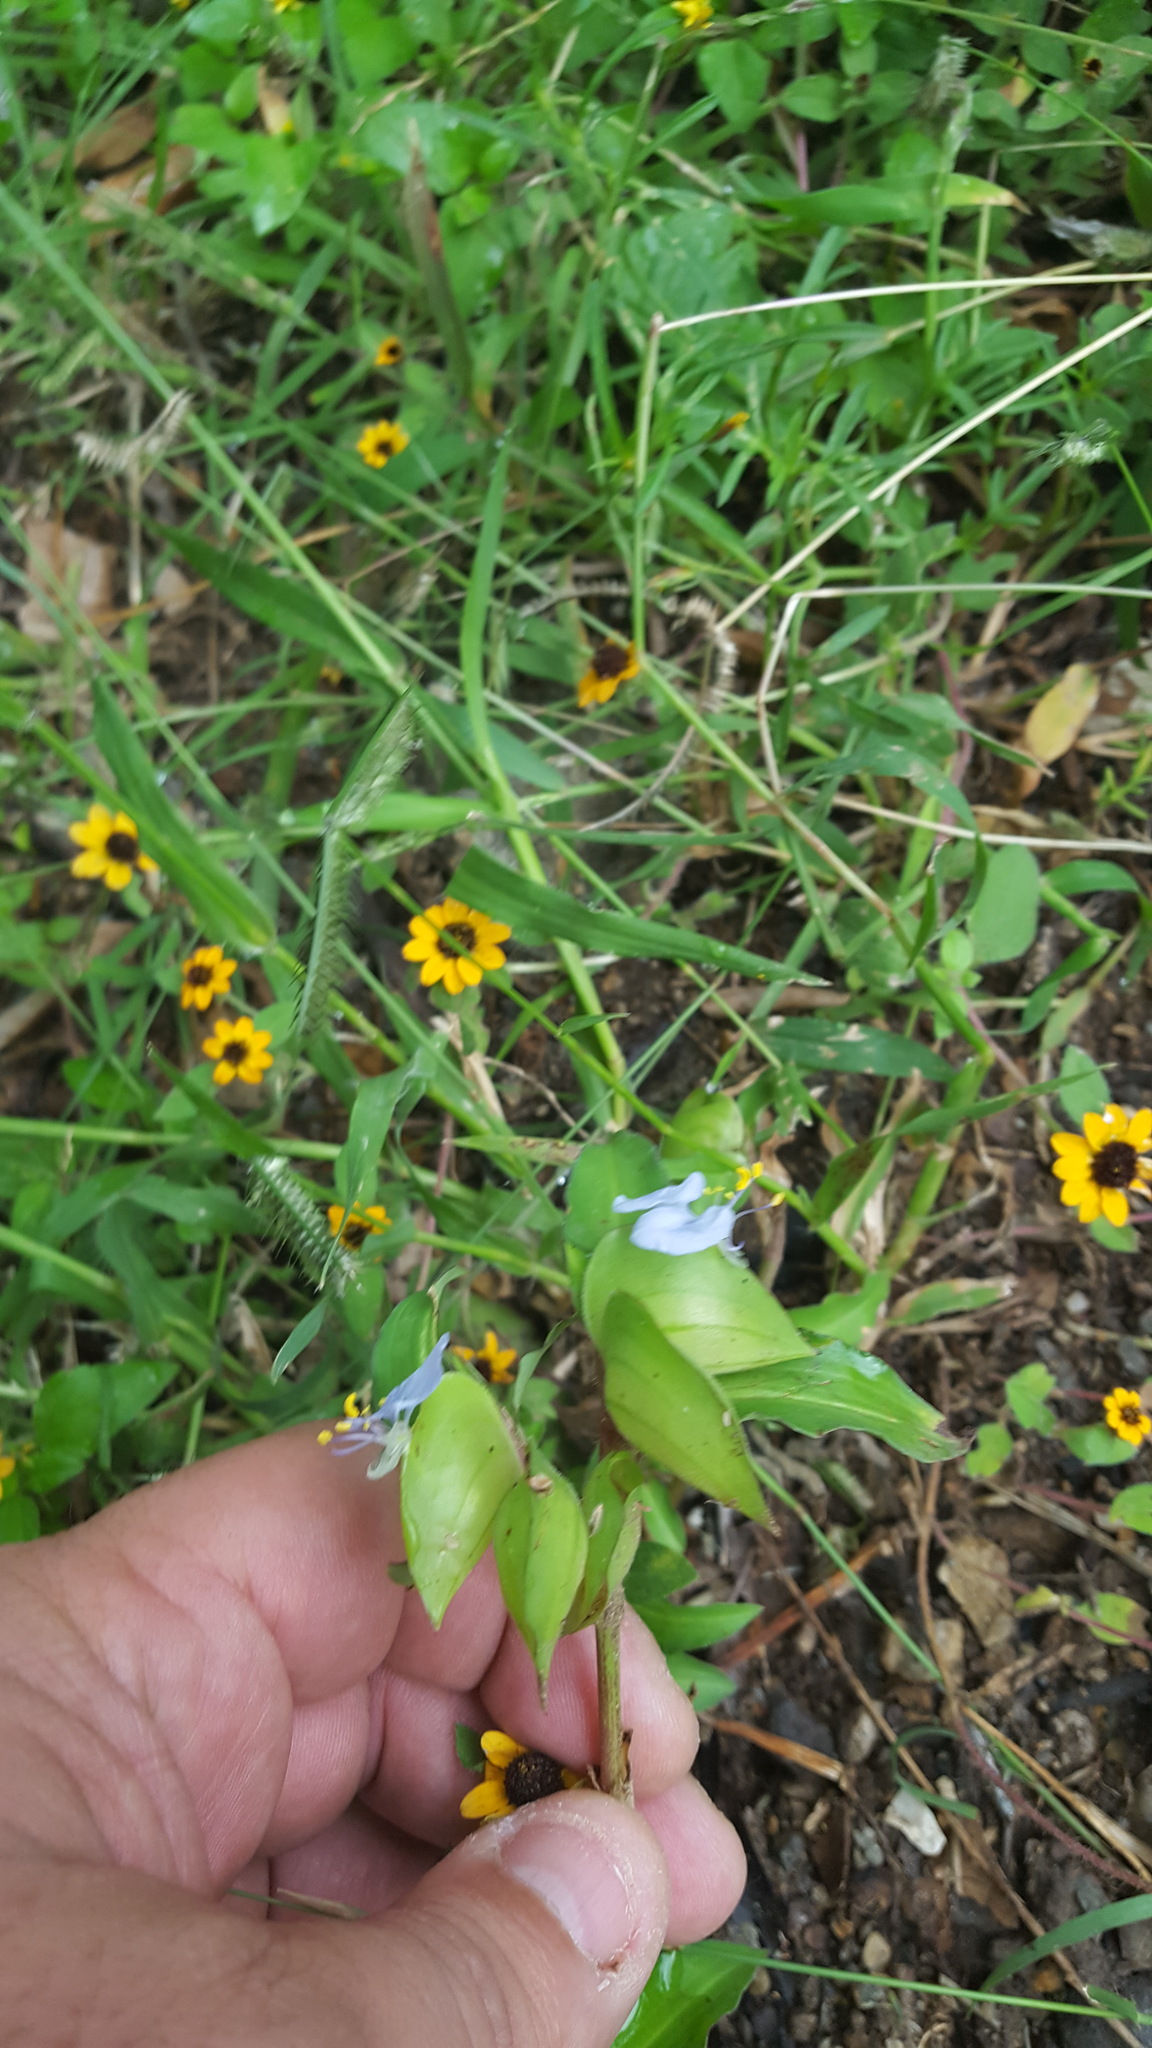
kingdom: Plantae
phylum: Tracheophyta
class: Liliopsida
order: Commelinales
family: Commelinaceae
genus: Commelina
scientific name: Commelina erecta
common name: Blousel blommetjie
